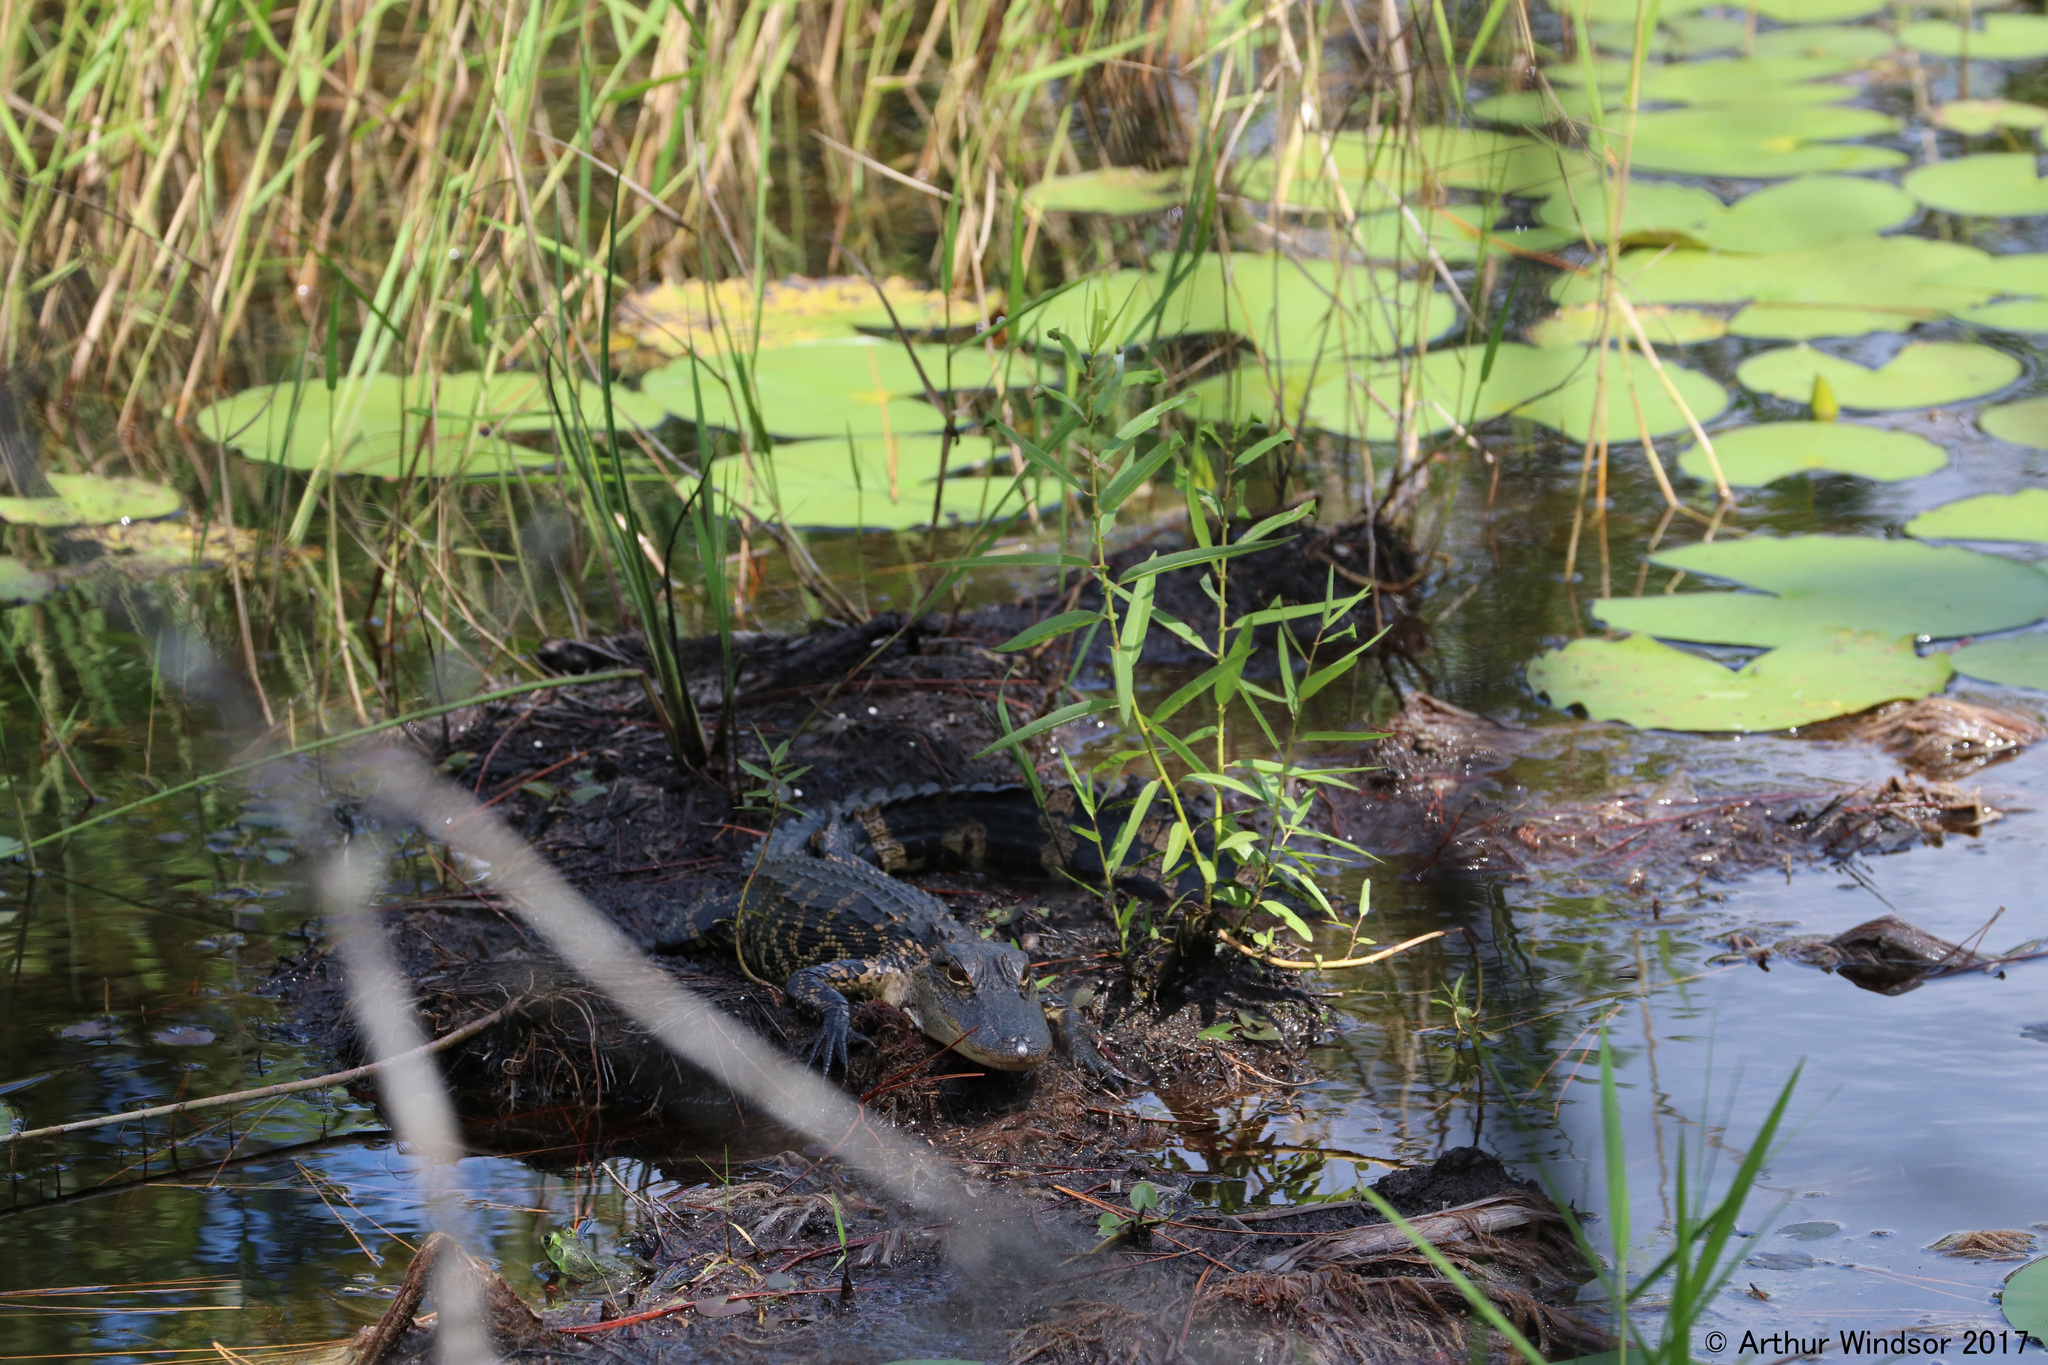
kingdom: Animalia
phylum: Chordata
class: Crocodylia
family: Alligatoridae
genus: Alligator
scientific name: Alligator mississippiensis
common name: American alligator
